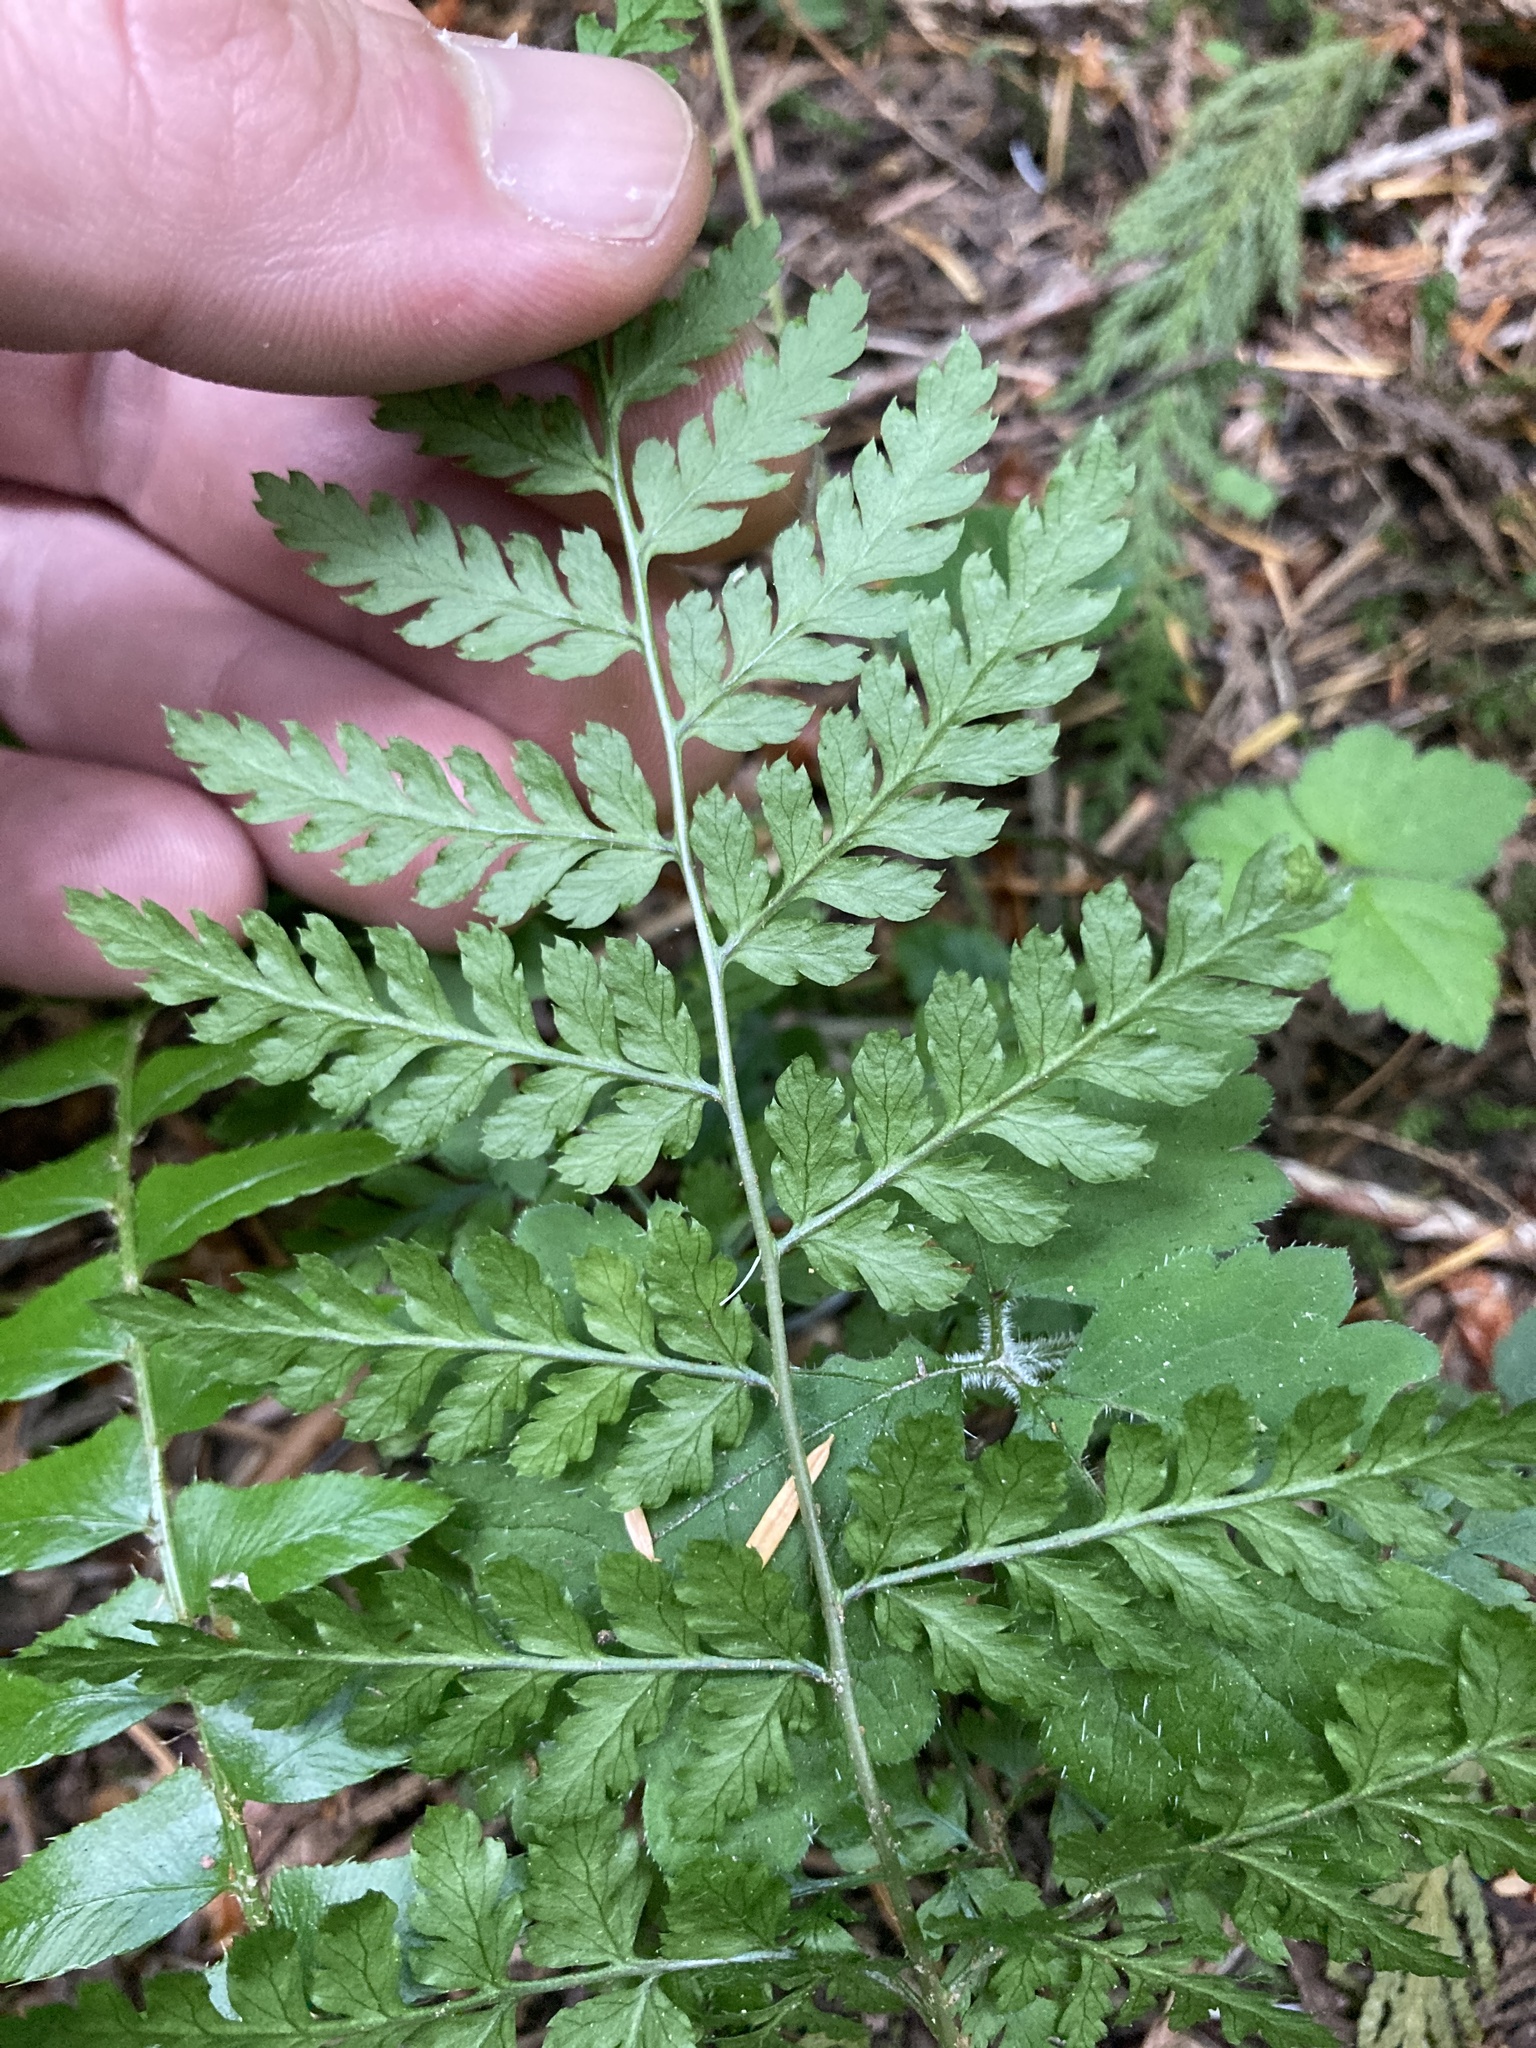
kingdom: Plantae
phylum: Tracheophyta
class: Polypodiopsida
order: Polypodiales
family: Dryopteridaceae
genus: Dryopteris
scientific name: Dryopteris expansa
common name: Northern buckler fern
